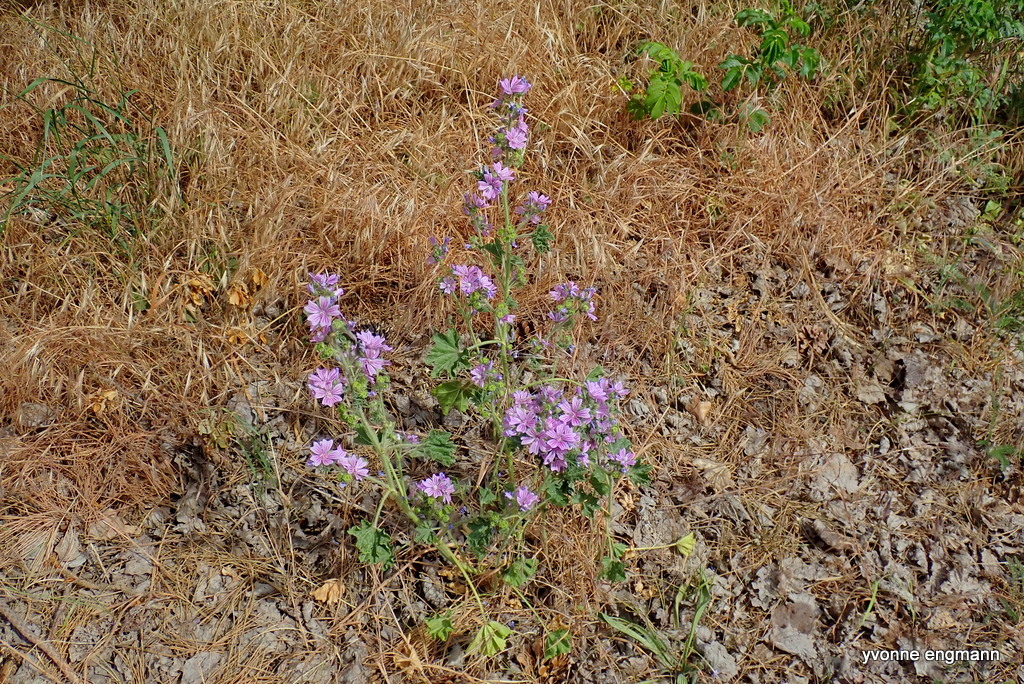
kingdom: Plantae
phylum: Tracheophyta
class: Magnoliopsida
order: Malvales
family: Malvaceae
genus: Malva
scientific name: Malva sylvestris
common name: Common mallow
